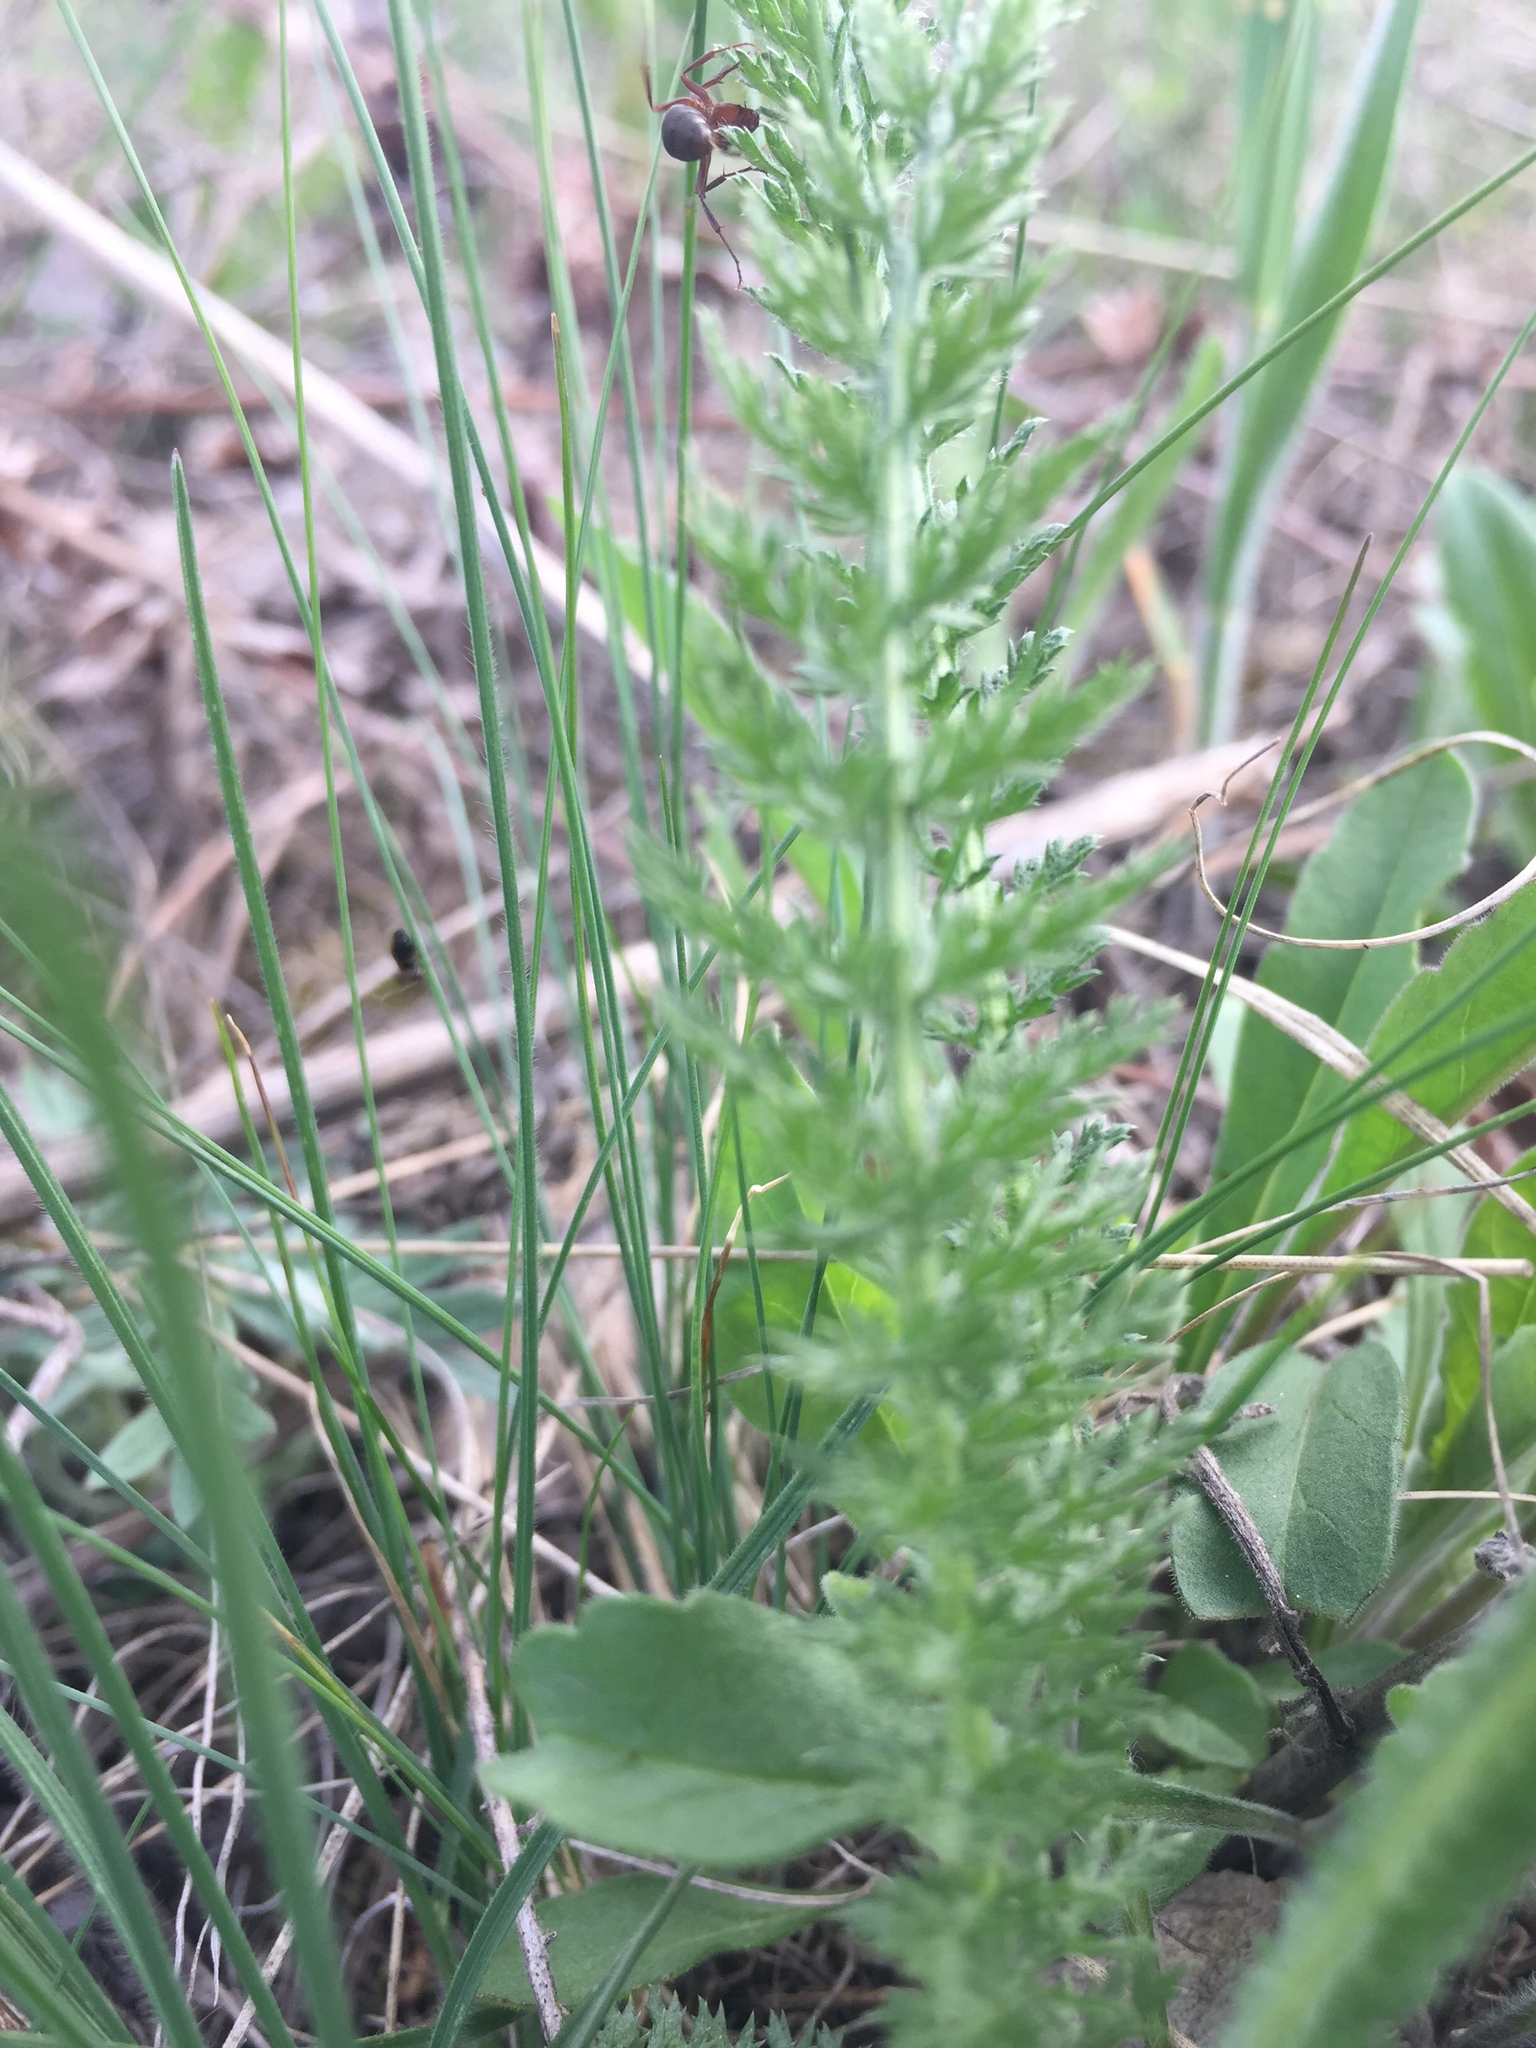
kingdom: Plantae
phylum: Tracheophyta
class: Magnoliopsida
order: Asterales
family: Asteraceae
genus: Achillea
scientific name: Achillea millefolium
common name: Yarrow
